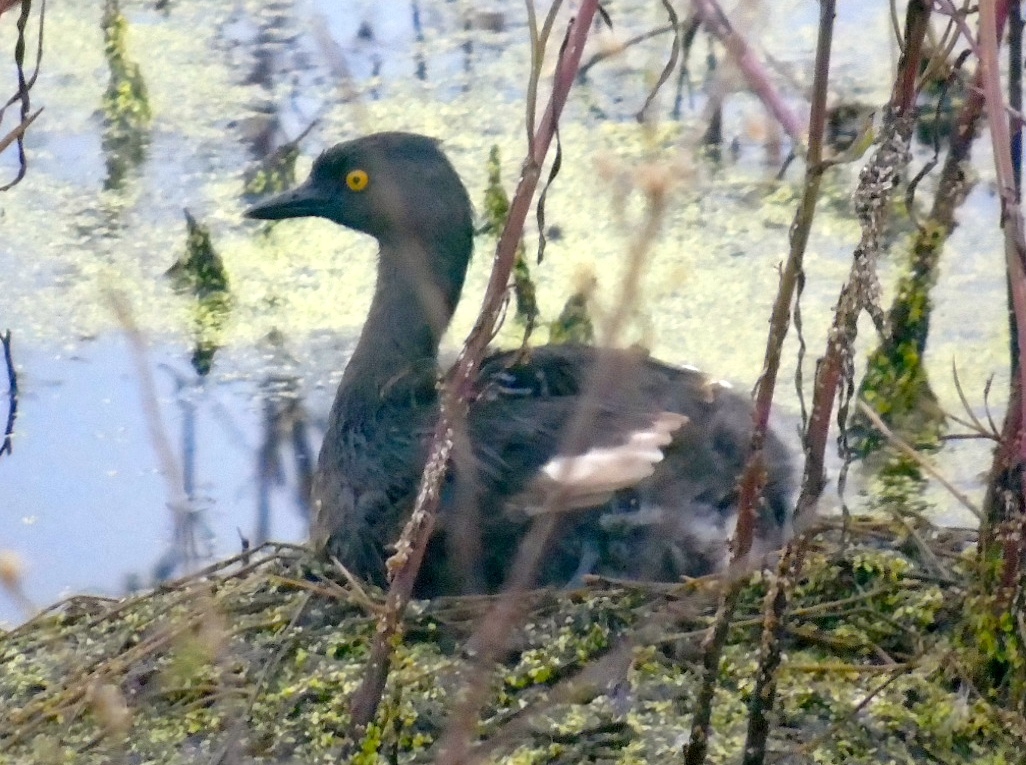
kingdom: Animalia
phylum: Chordata
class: Aves
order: Podicipediformes
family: Podicipedidae
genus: Tachybaptus
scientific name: Tachybaptus dominicus
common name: Least grebe
